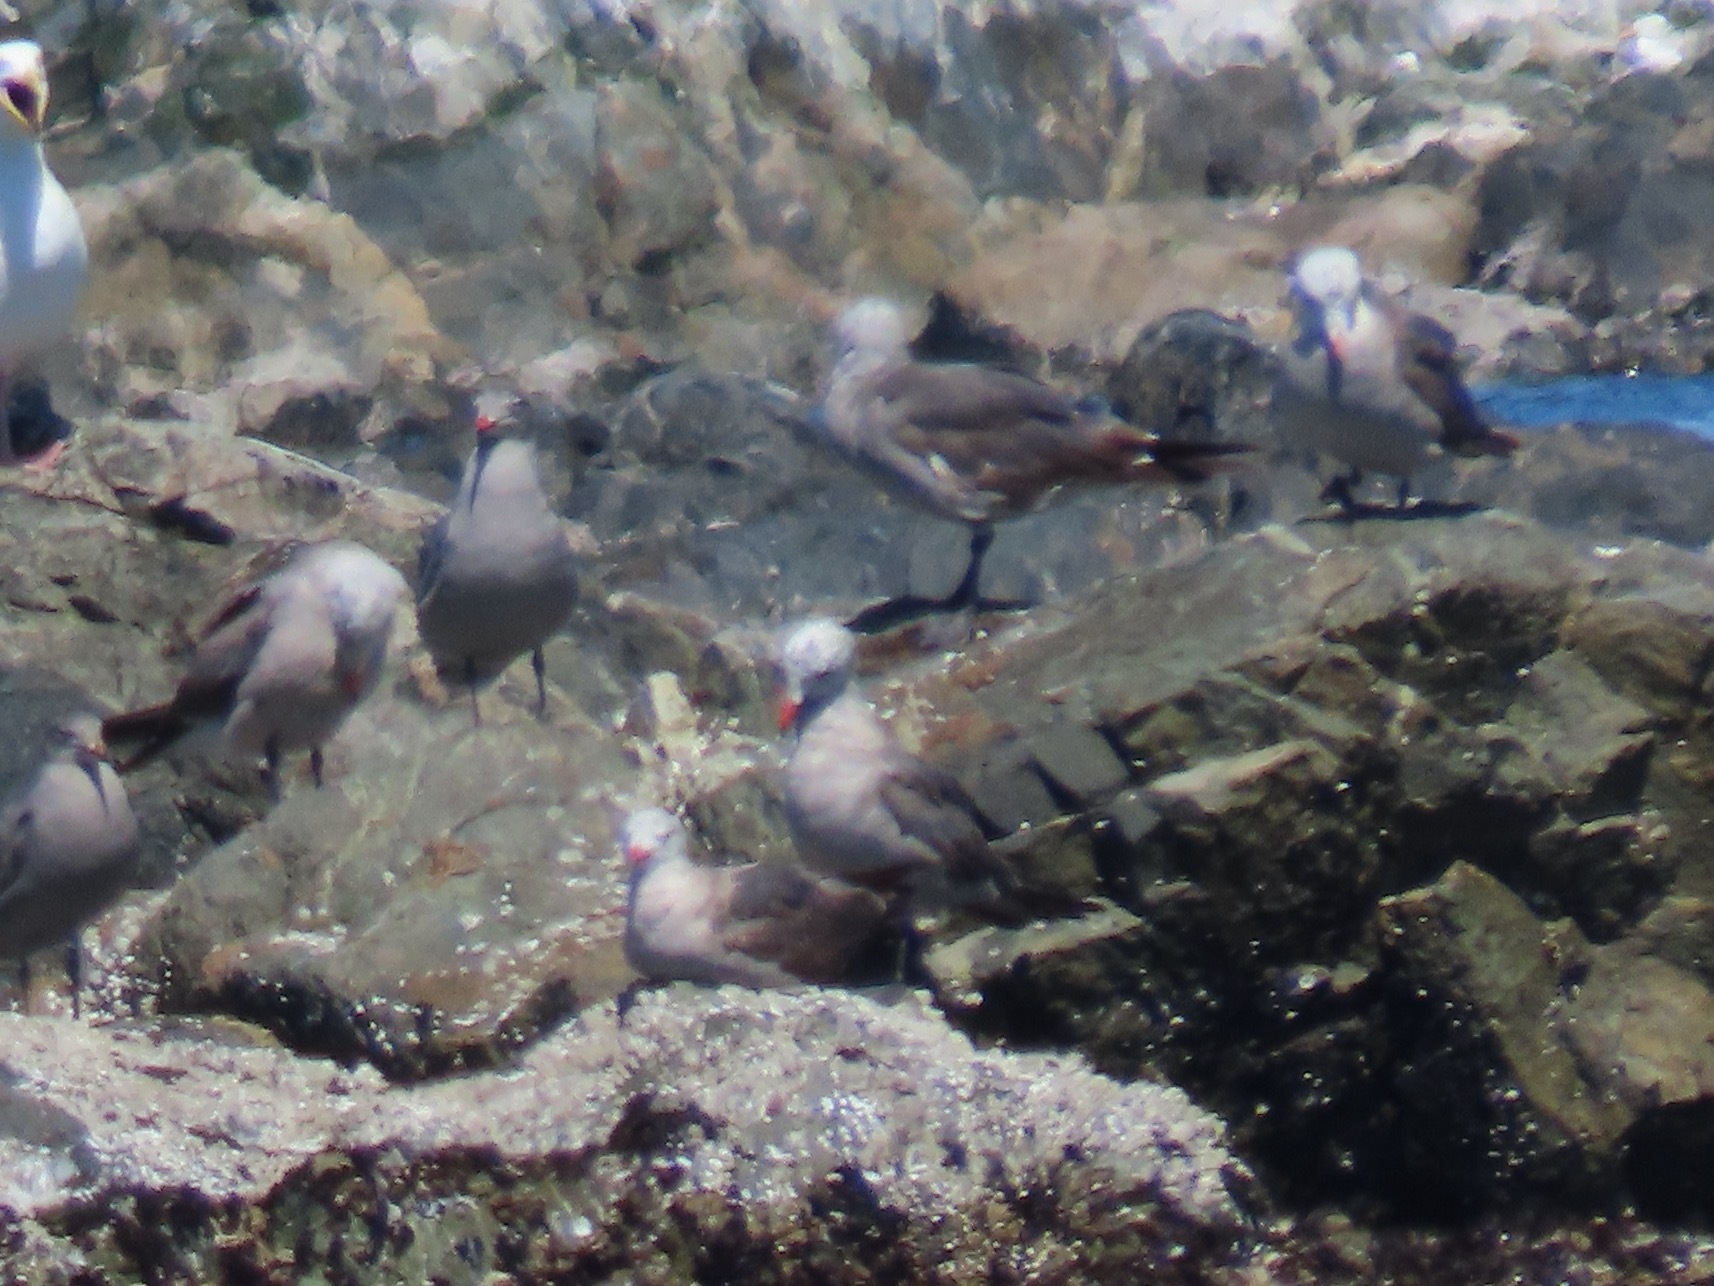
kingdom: Animalia
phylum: Chordata
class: Aves
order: Charadriiformes
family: Laridae
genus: Larus
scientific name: Larus heermanni
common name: Heermann's gull
